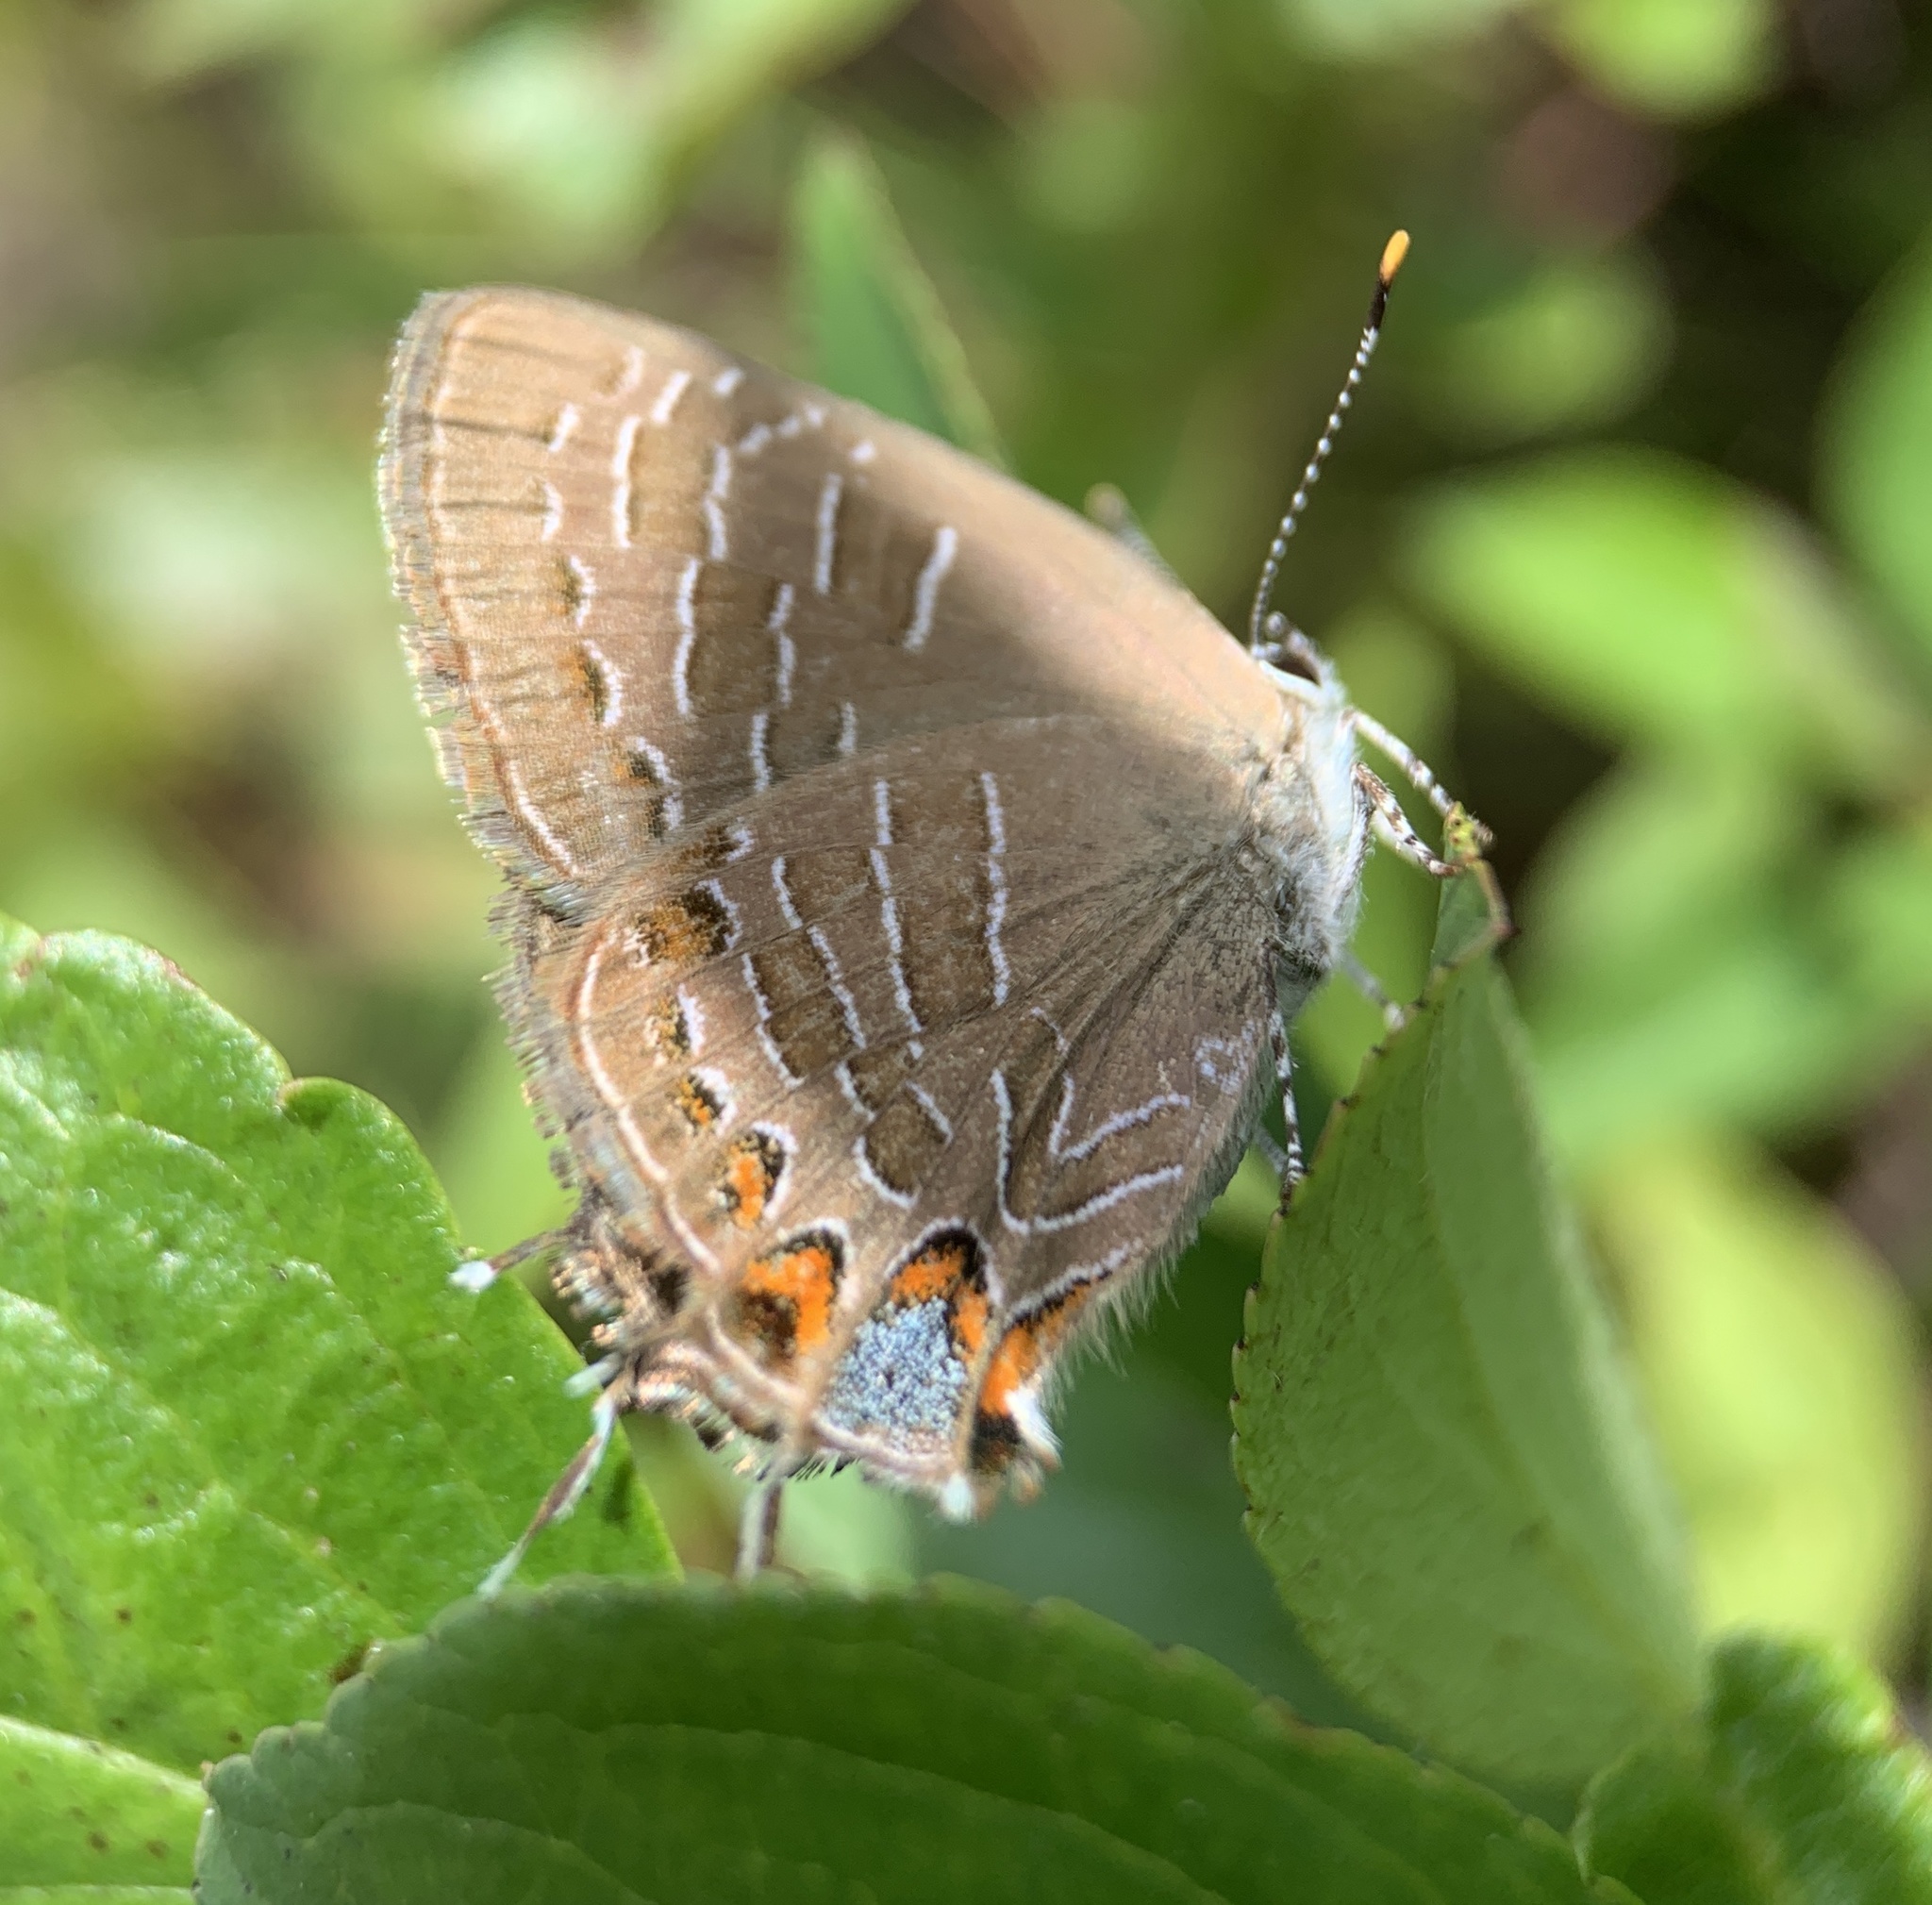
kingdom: Animalia
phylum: Arthropoda
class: Insecta
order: Lepidoptera
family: Lycaenidae
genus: Satyrium
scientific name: Satyrium liparops
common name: Striped hairstreak
